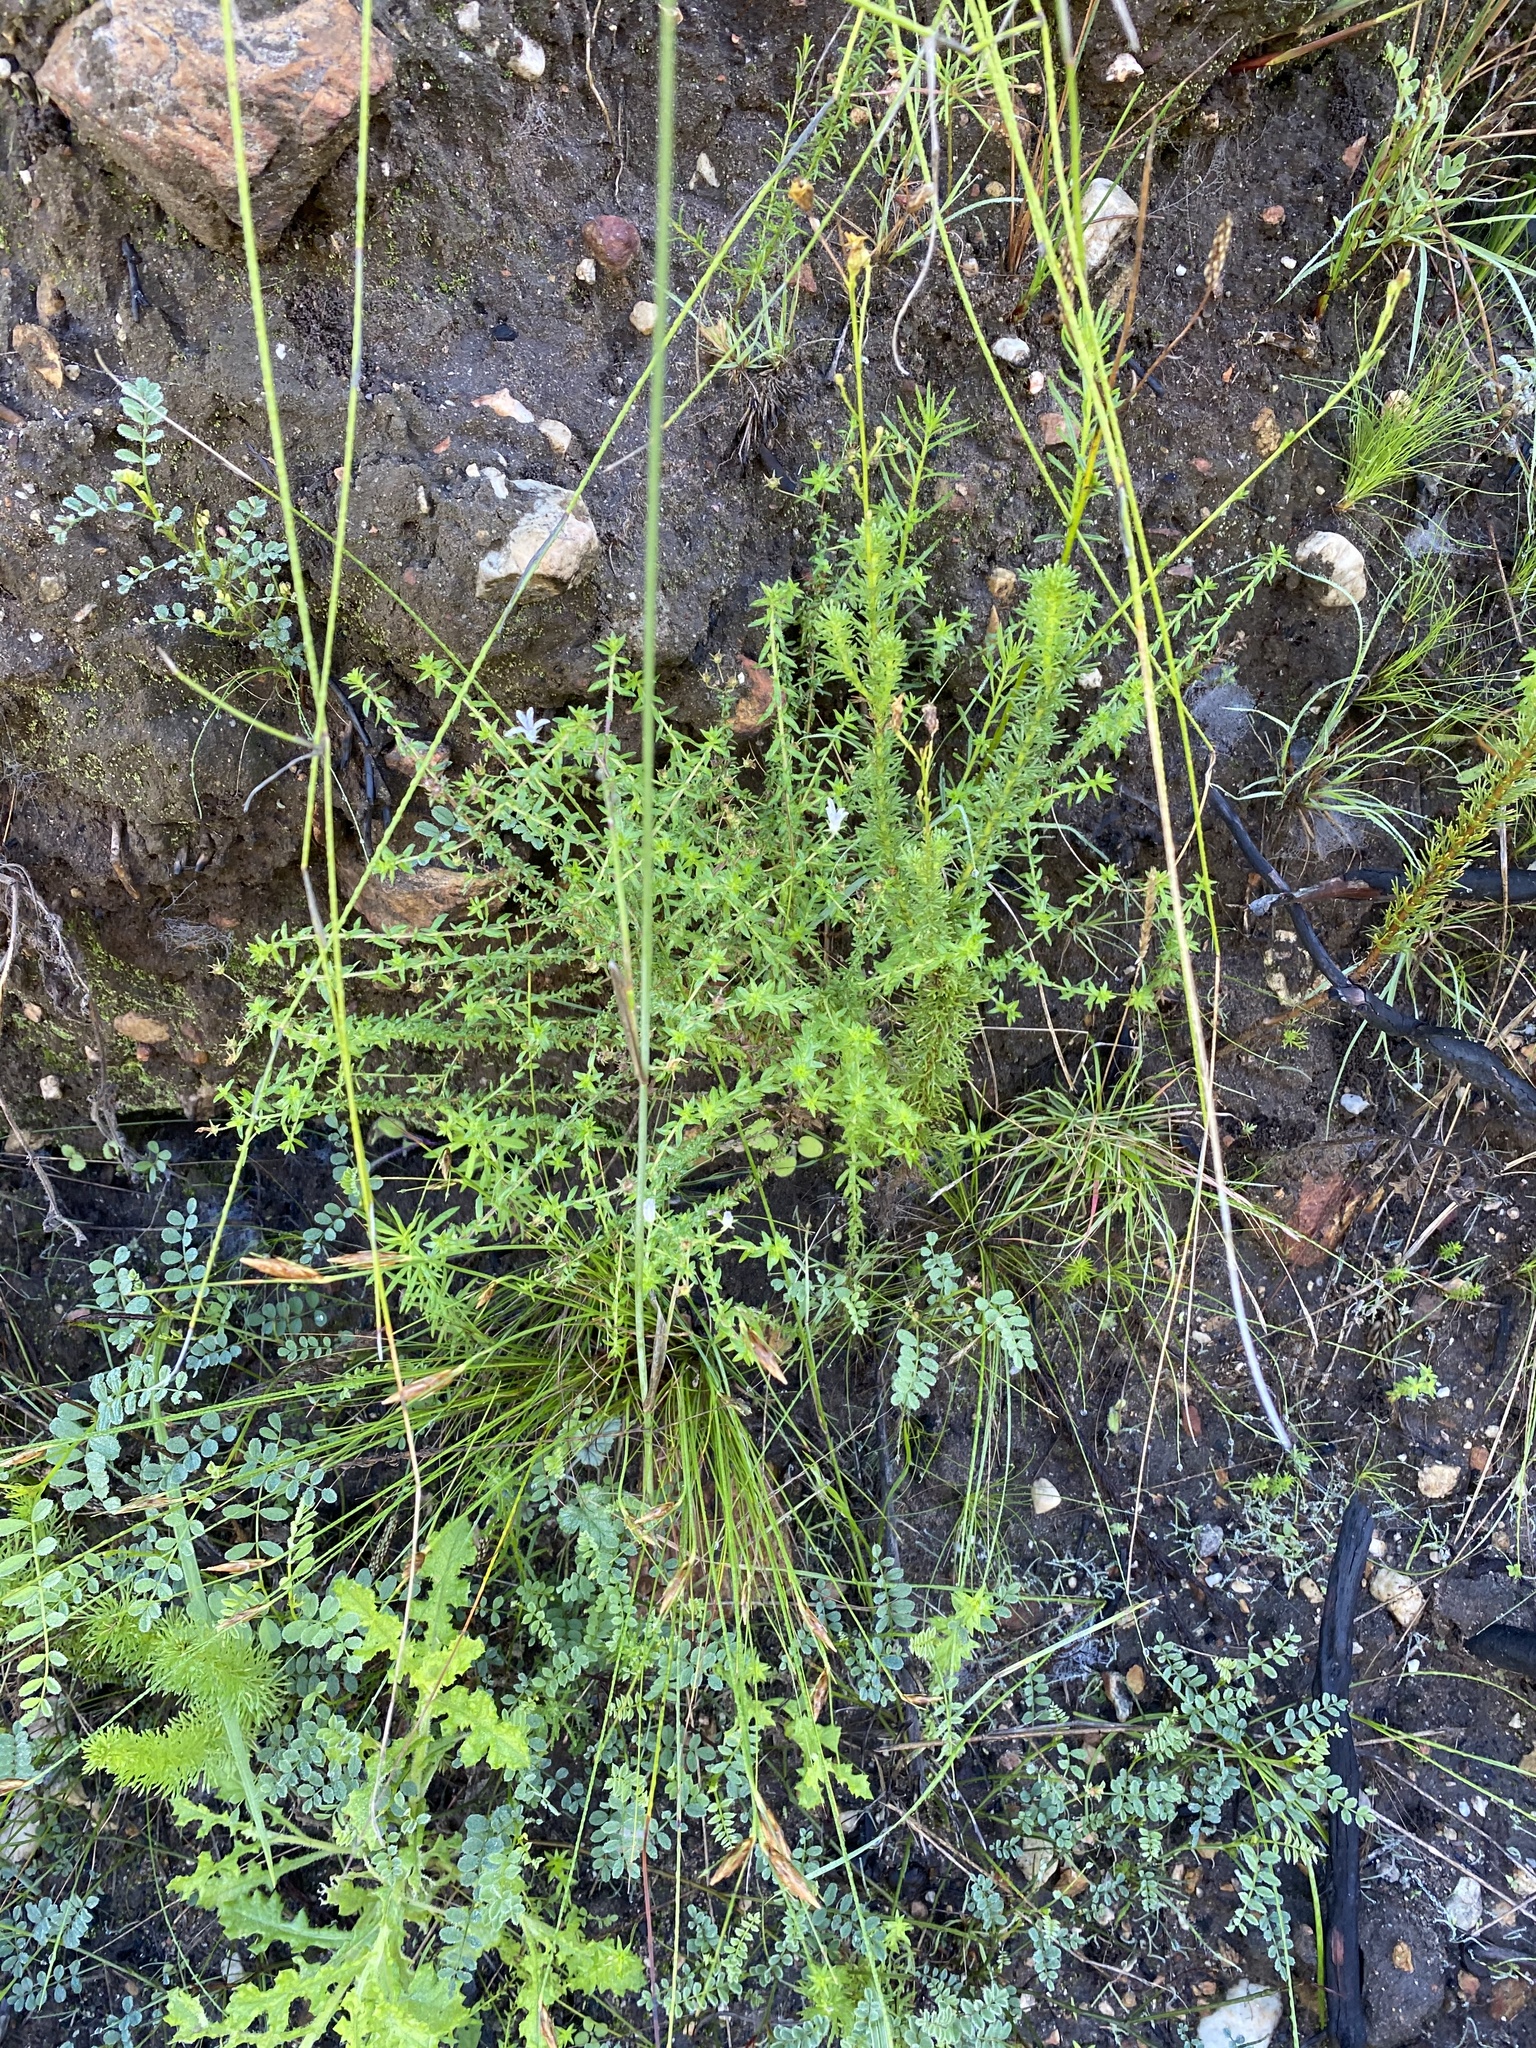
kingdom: Plantae
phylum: Tracheophyta
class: Magnoliopsida
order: Asterales
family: Campanulaceae
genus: Wahlenbergia
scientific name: Wahlenbergia tenella
